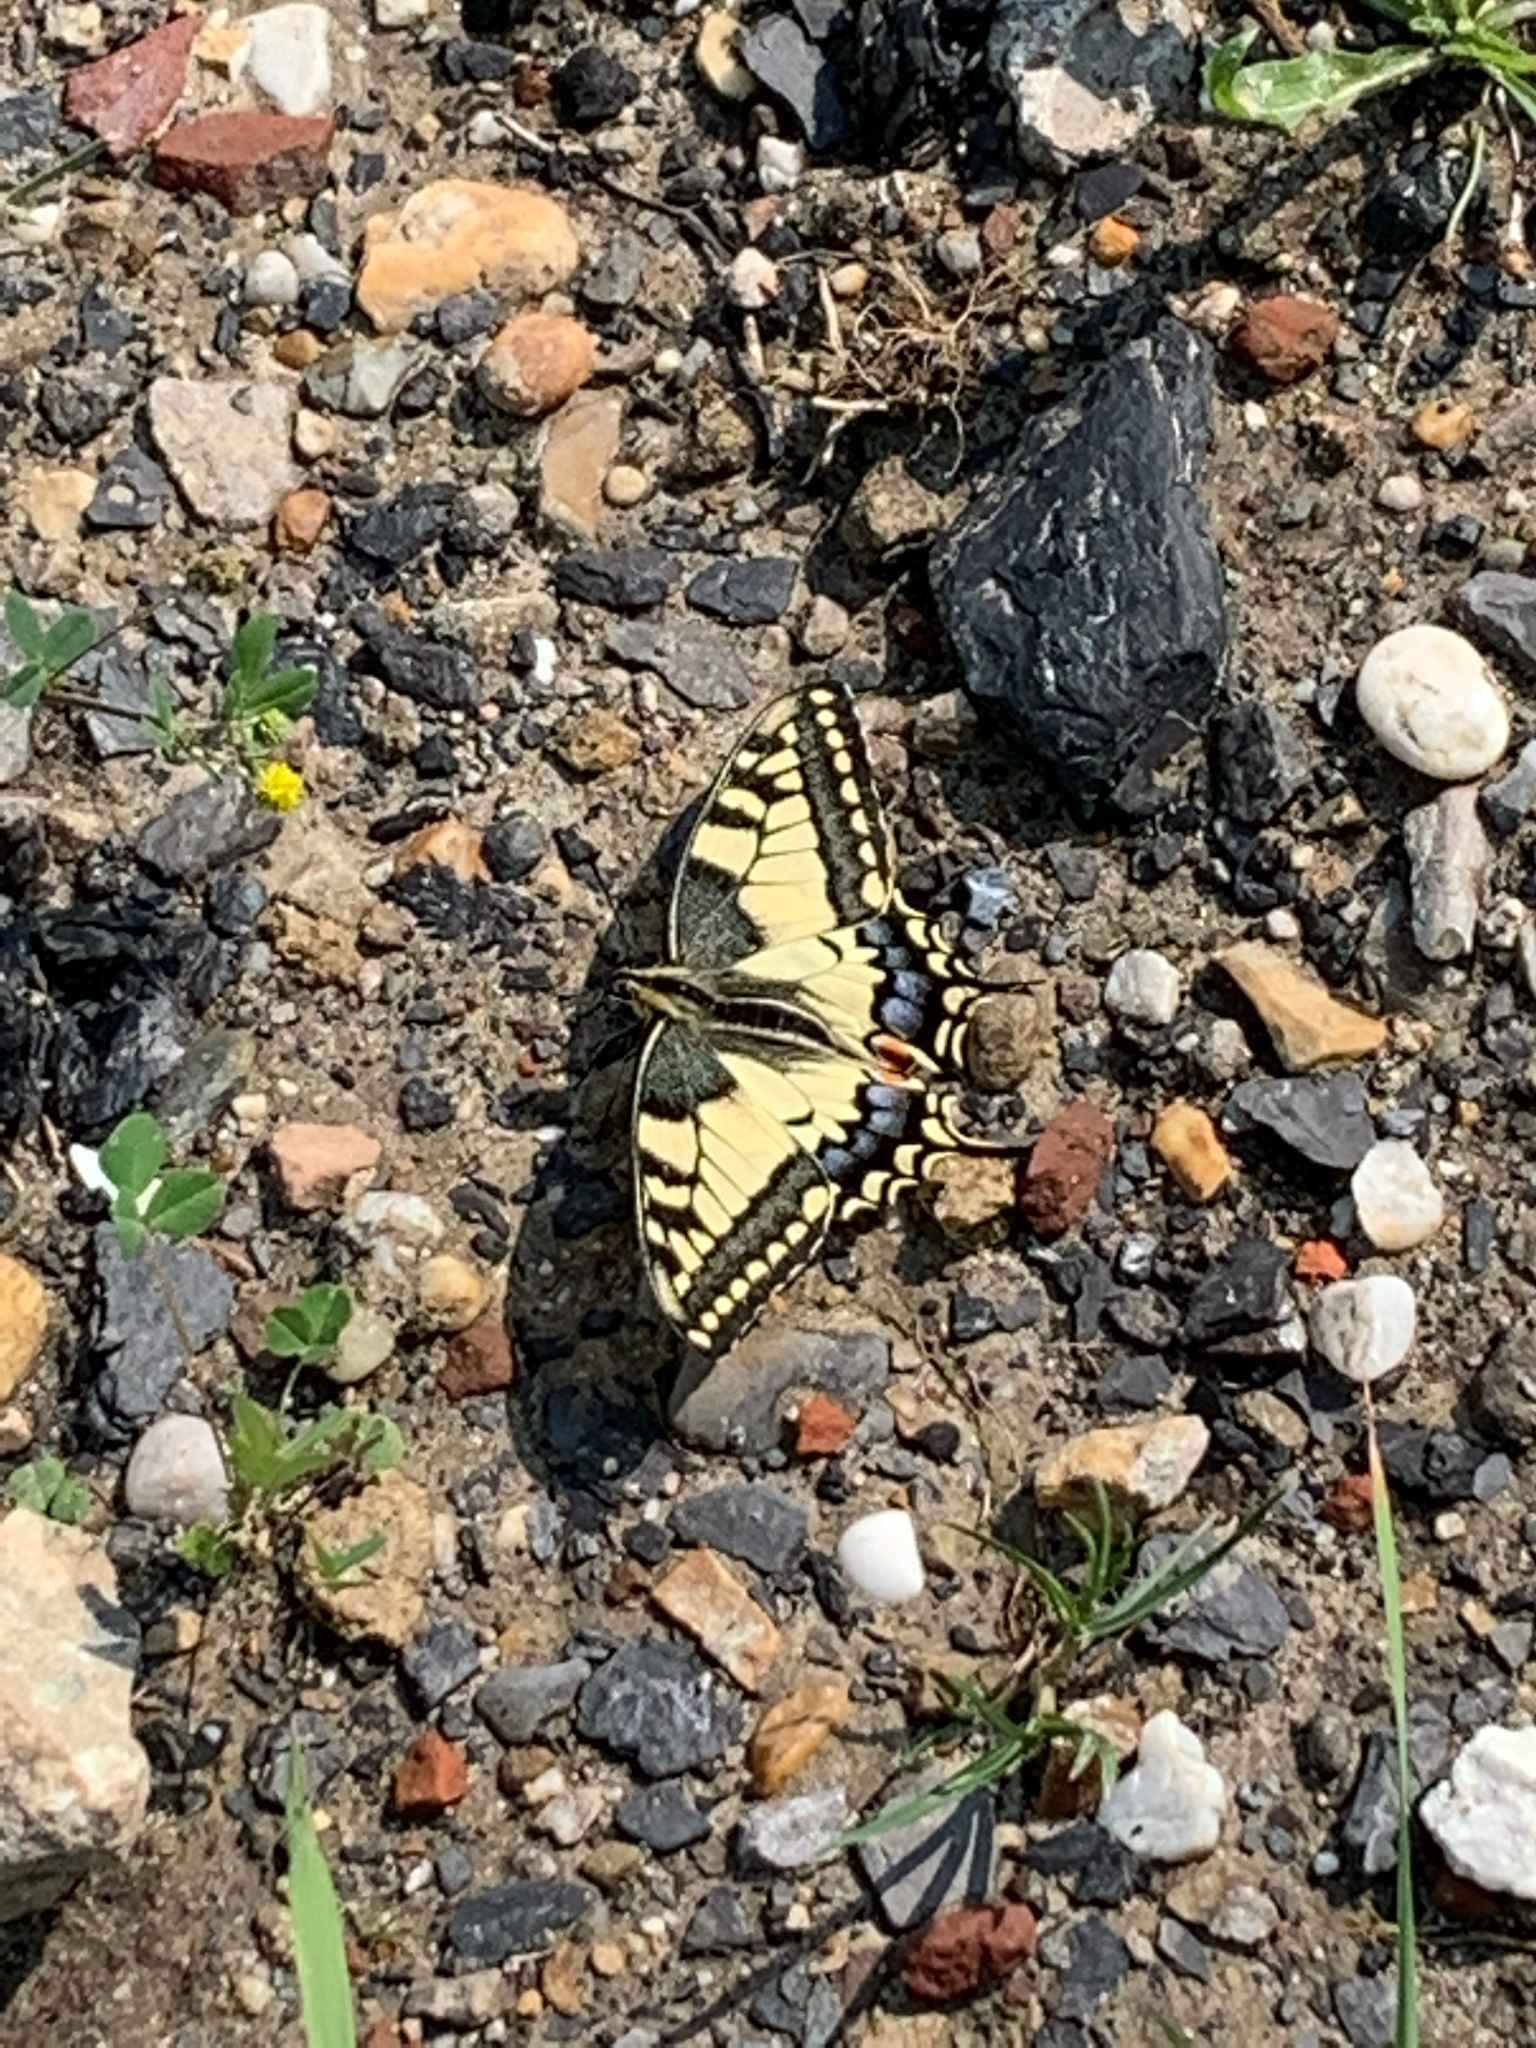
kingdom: Animalia
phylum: Arthropoda
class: Insecta
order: Lepidoptera
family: Papilionidae
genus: Papilio
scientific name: Papilio machaon
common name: Swallowtail
